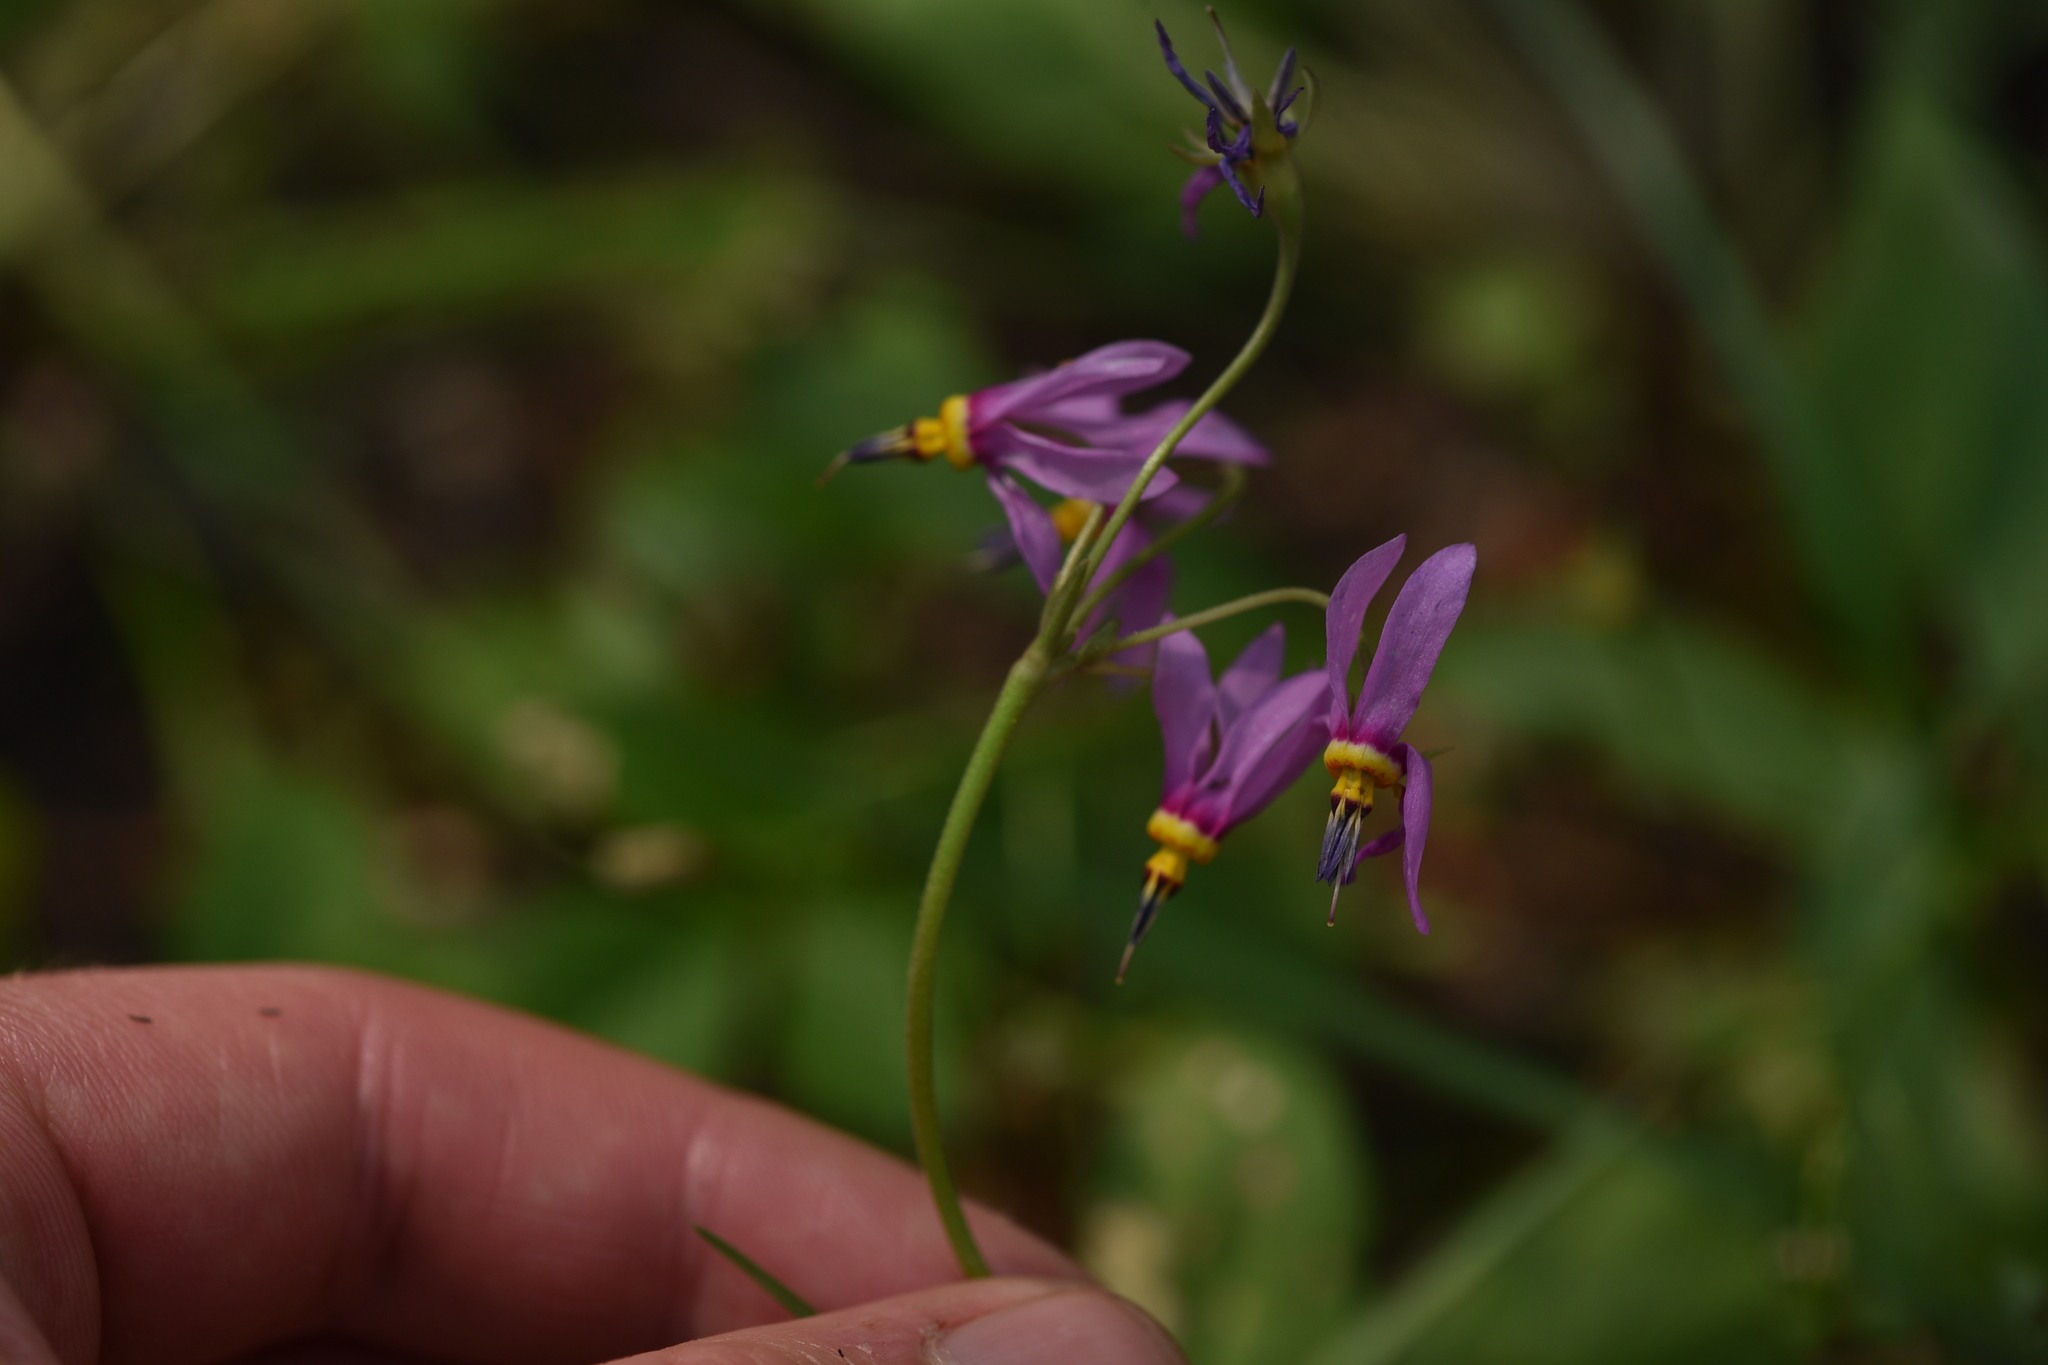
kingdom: Plantae
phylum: Tracheophyta
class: Magnoliopsida
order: Ericales
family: Primulaceae
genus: Dodecatheon
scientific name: Dodecatheon pulchellum
